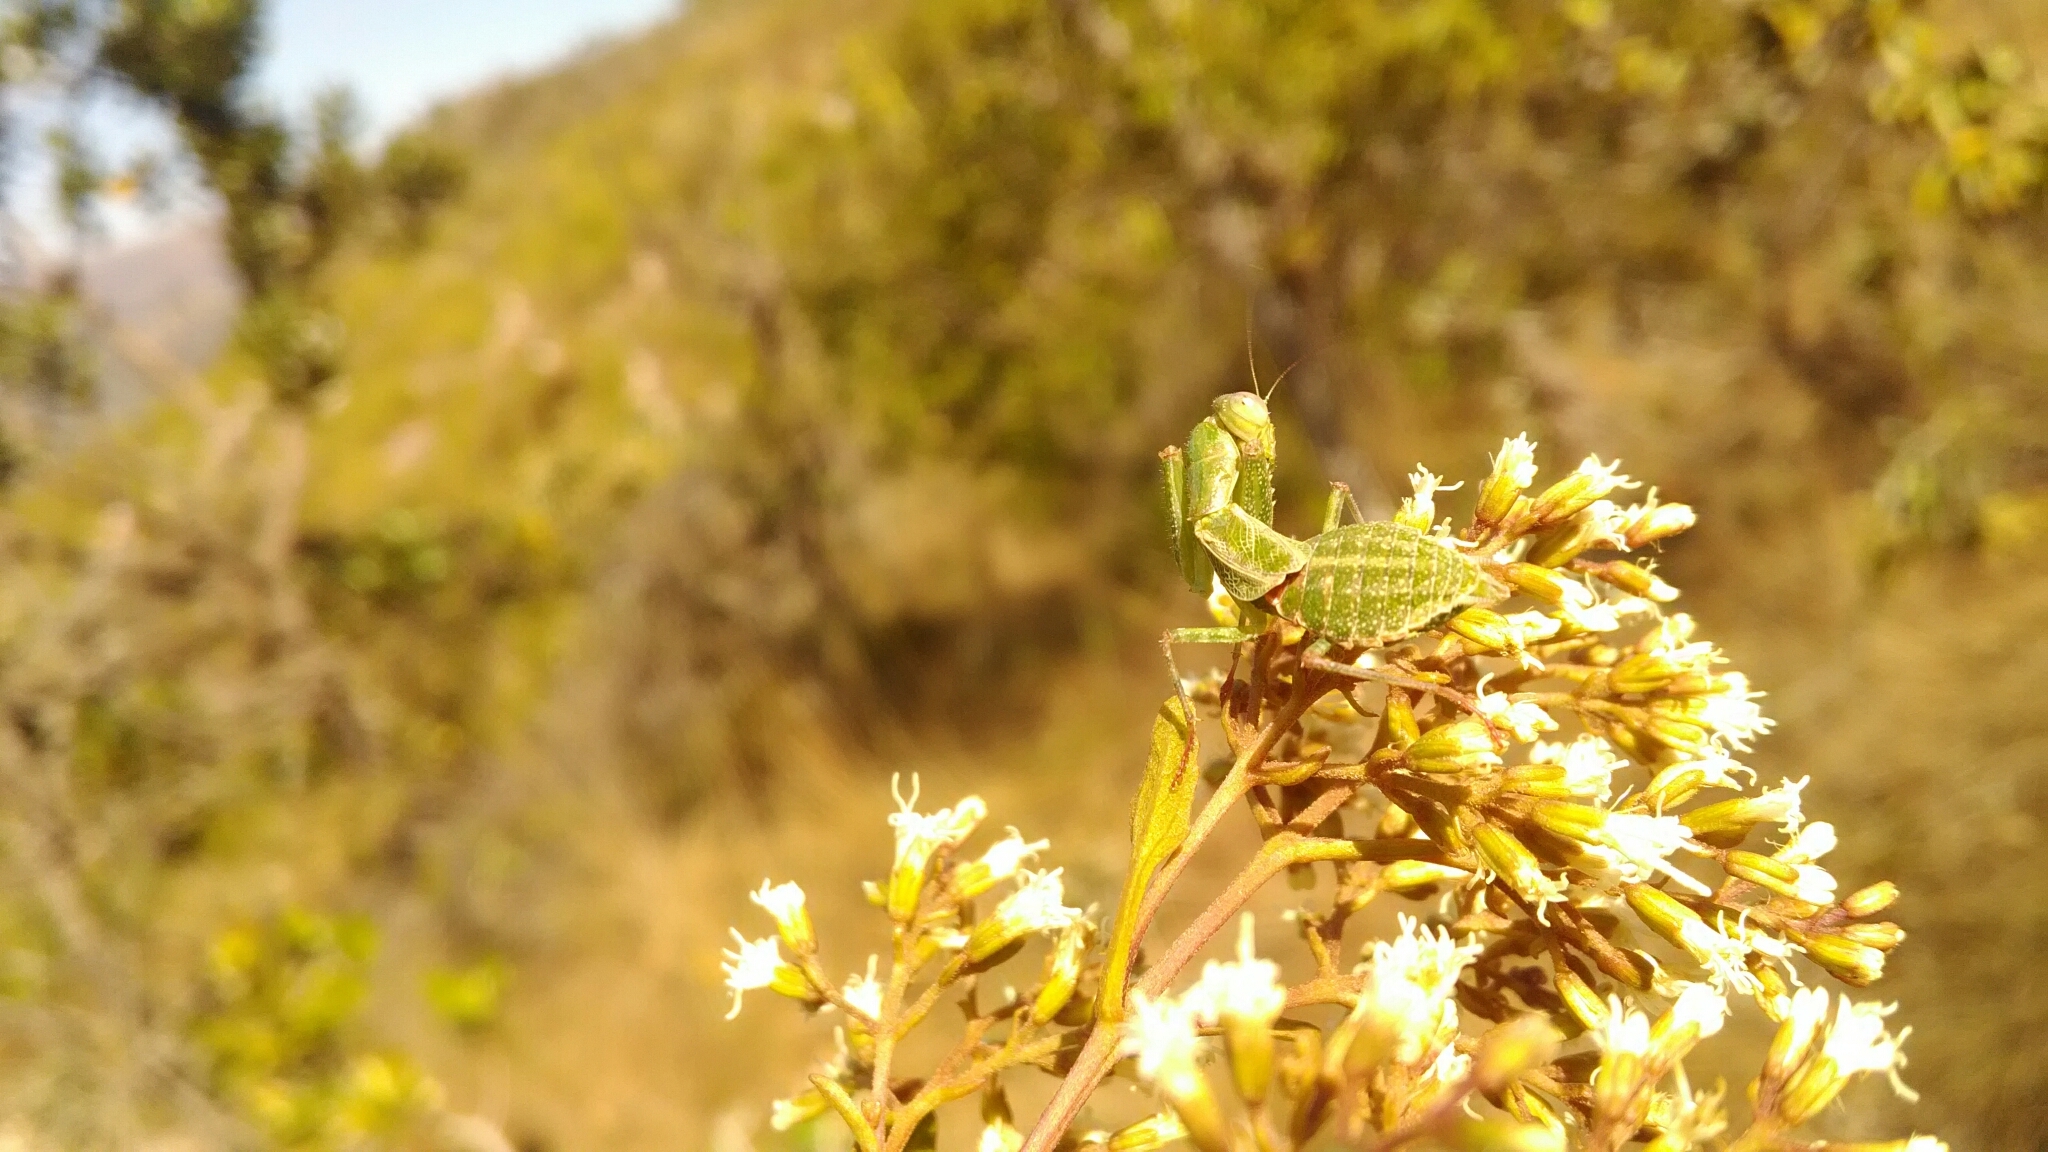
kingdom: Animalia
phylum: Arthropoda
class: Insecta
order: Mantodea
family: Acanthopidae
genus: Acontista
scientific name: Acontista
